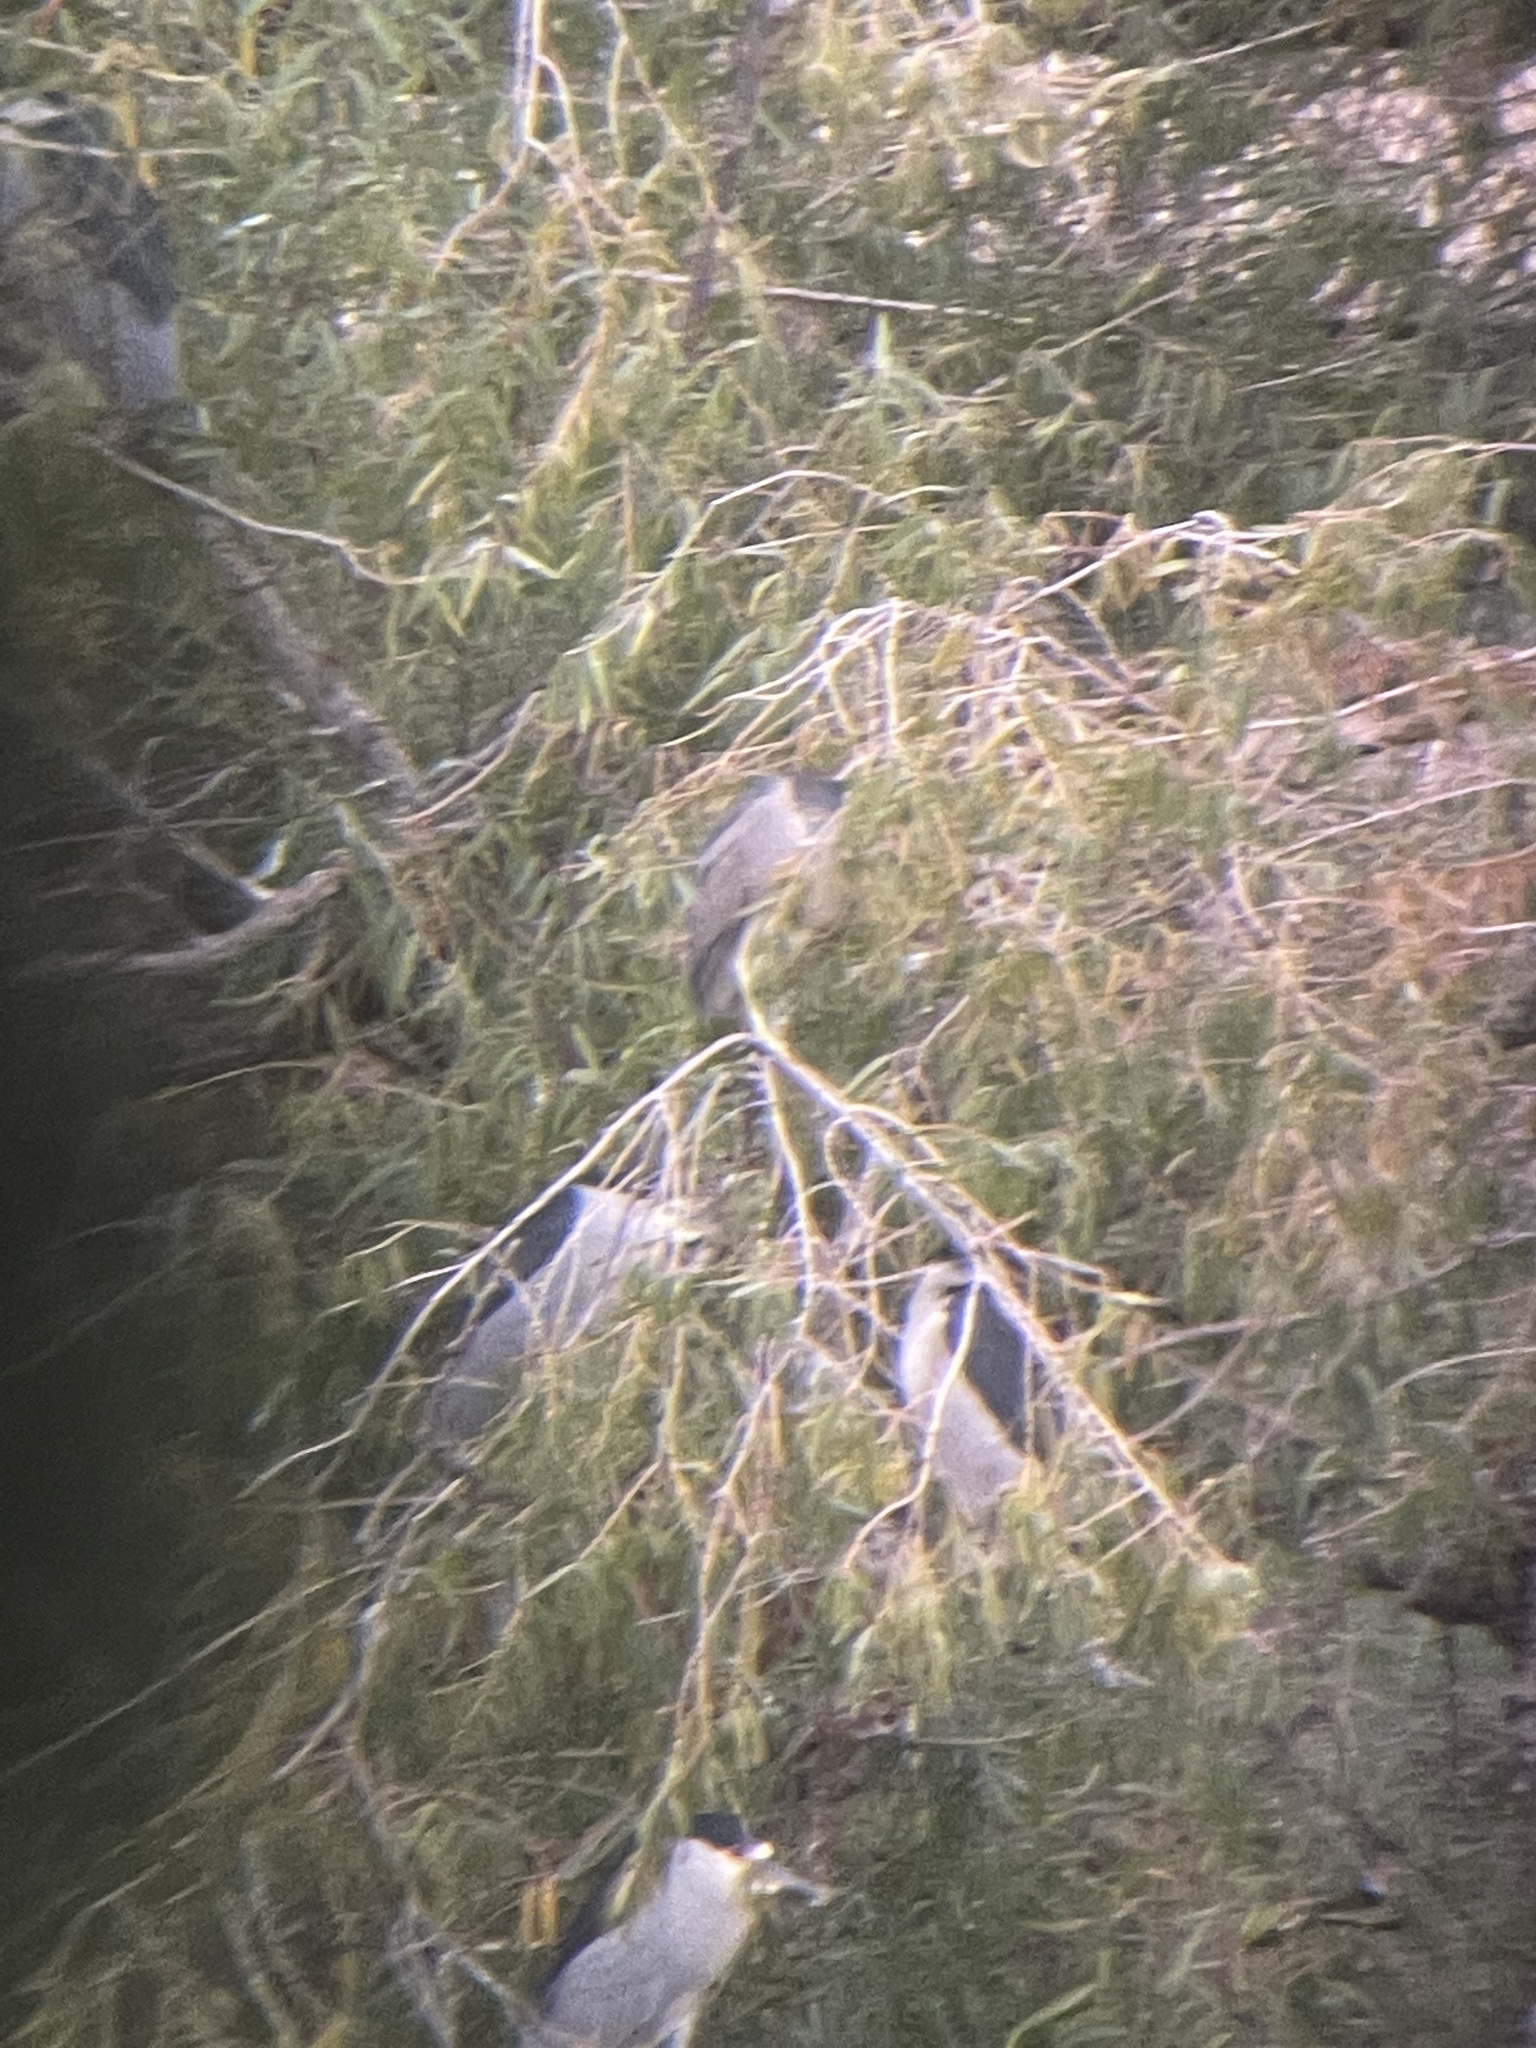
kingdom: Animalia
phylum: Chordata
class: Aves
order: Pelecaniformes
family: Ardeidae
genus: Nycticorax
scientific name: Nycticorax nycticorax
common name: Black-crowned night heron
